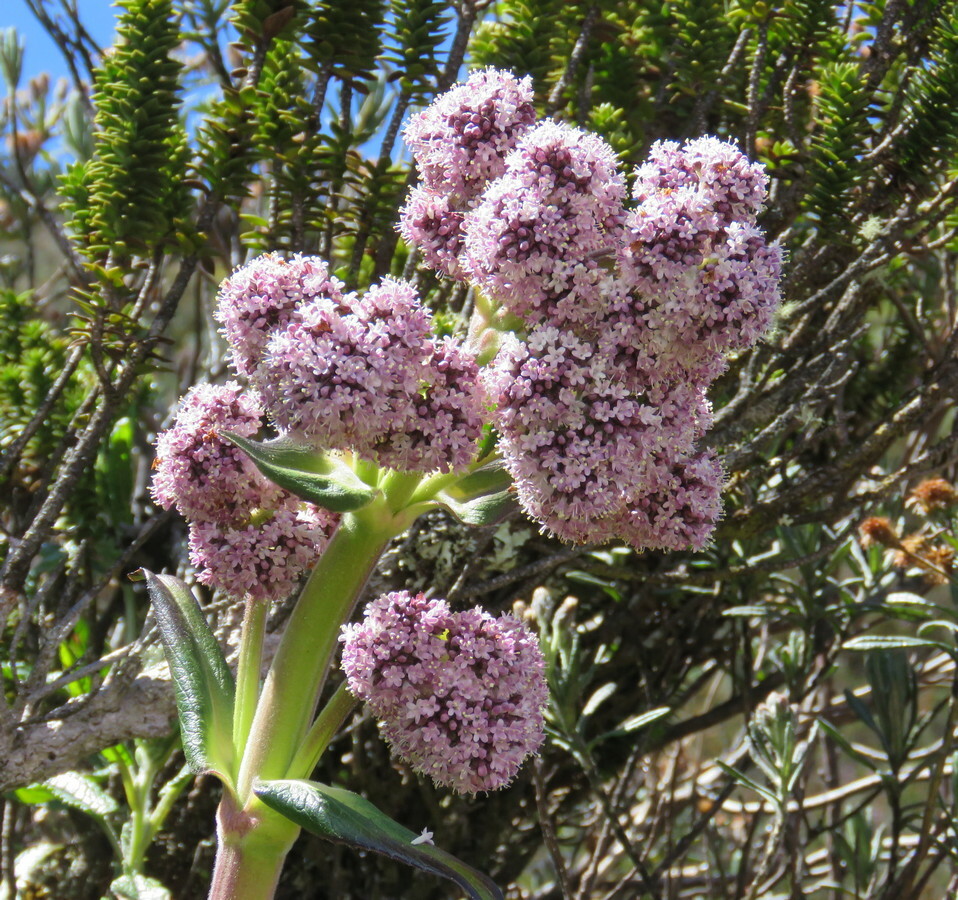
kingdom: Plantae
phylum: Tracheophyta
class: Magnoliopsida
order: Dipsacales
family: Caprifoliaceae
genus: Valeriana
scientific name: Valeriana pilosa
